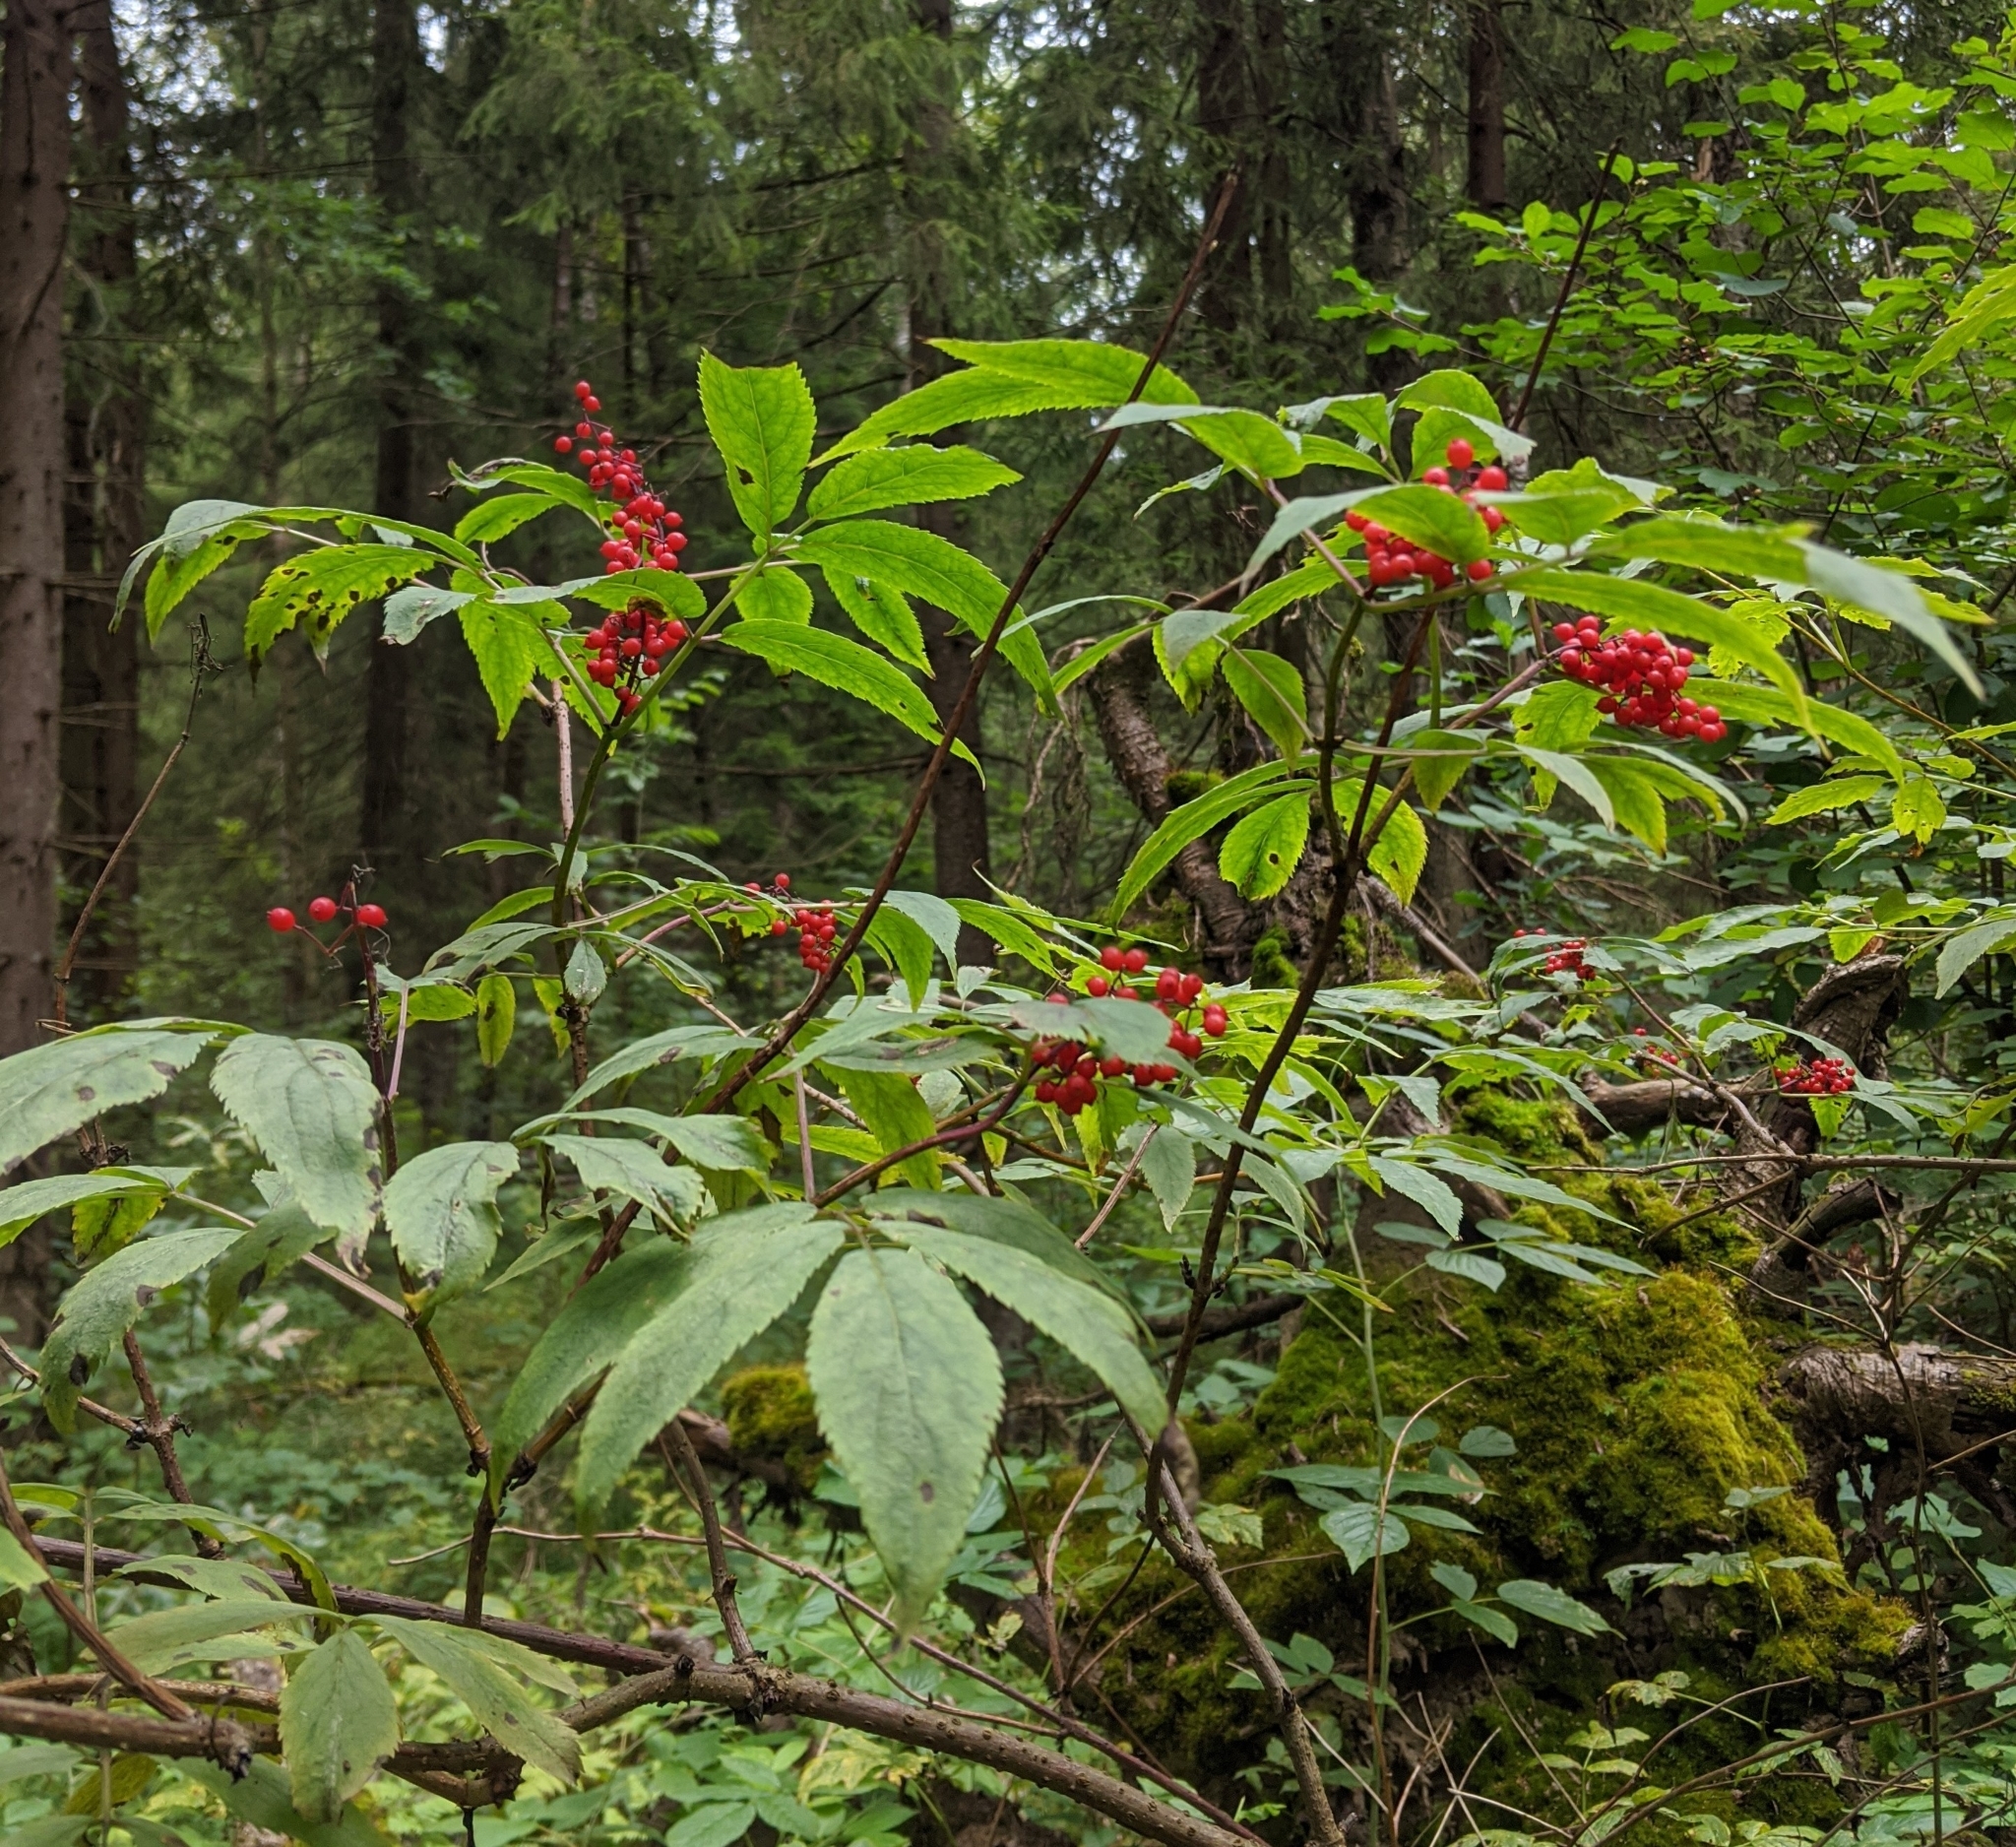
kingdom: Plantae
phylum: Tracheophyta
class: Magnoliopsida
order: Dipsacales
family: Viburnaceae
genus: Sambucus
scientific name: Sambucus racemosa
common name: Red-berried elder
